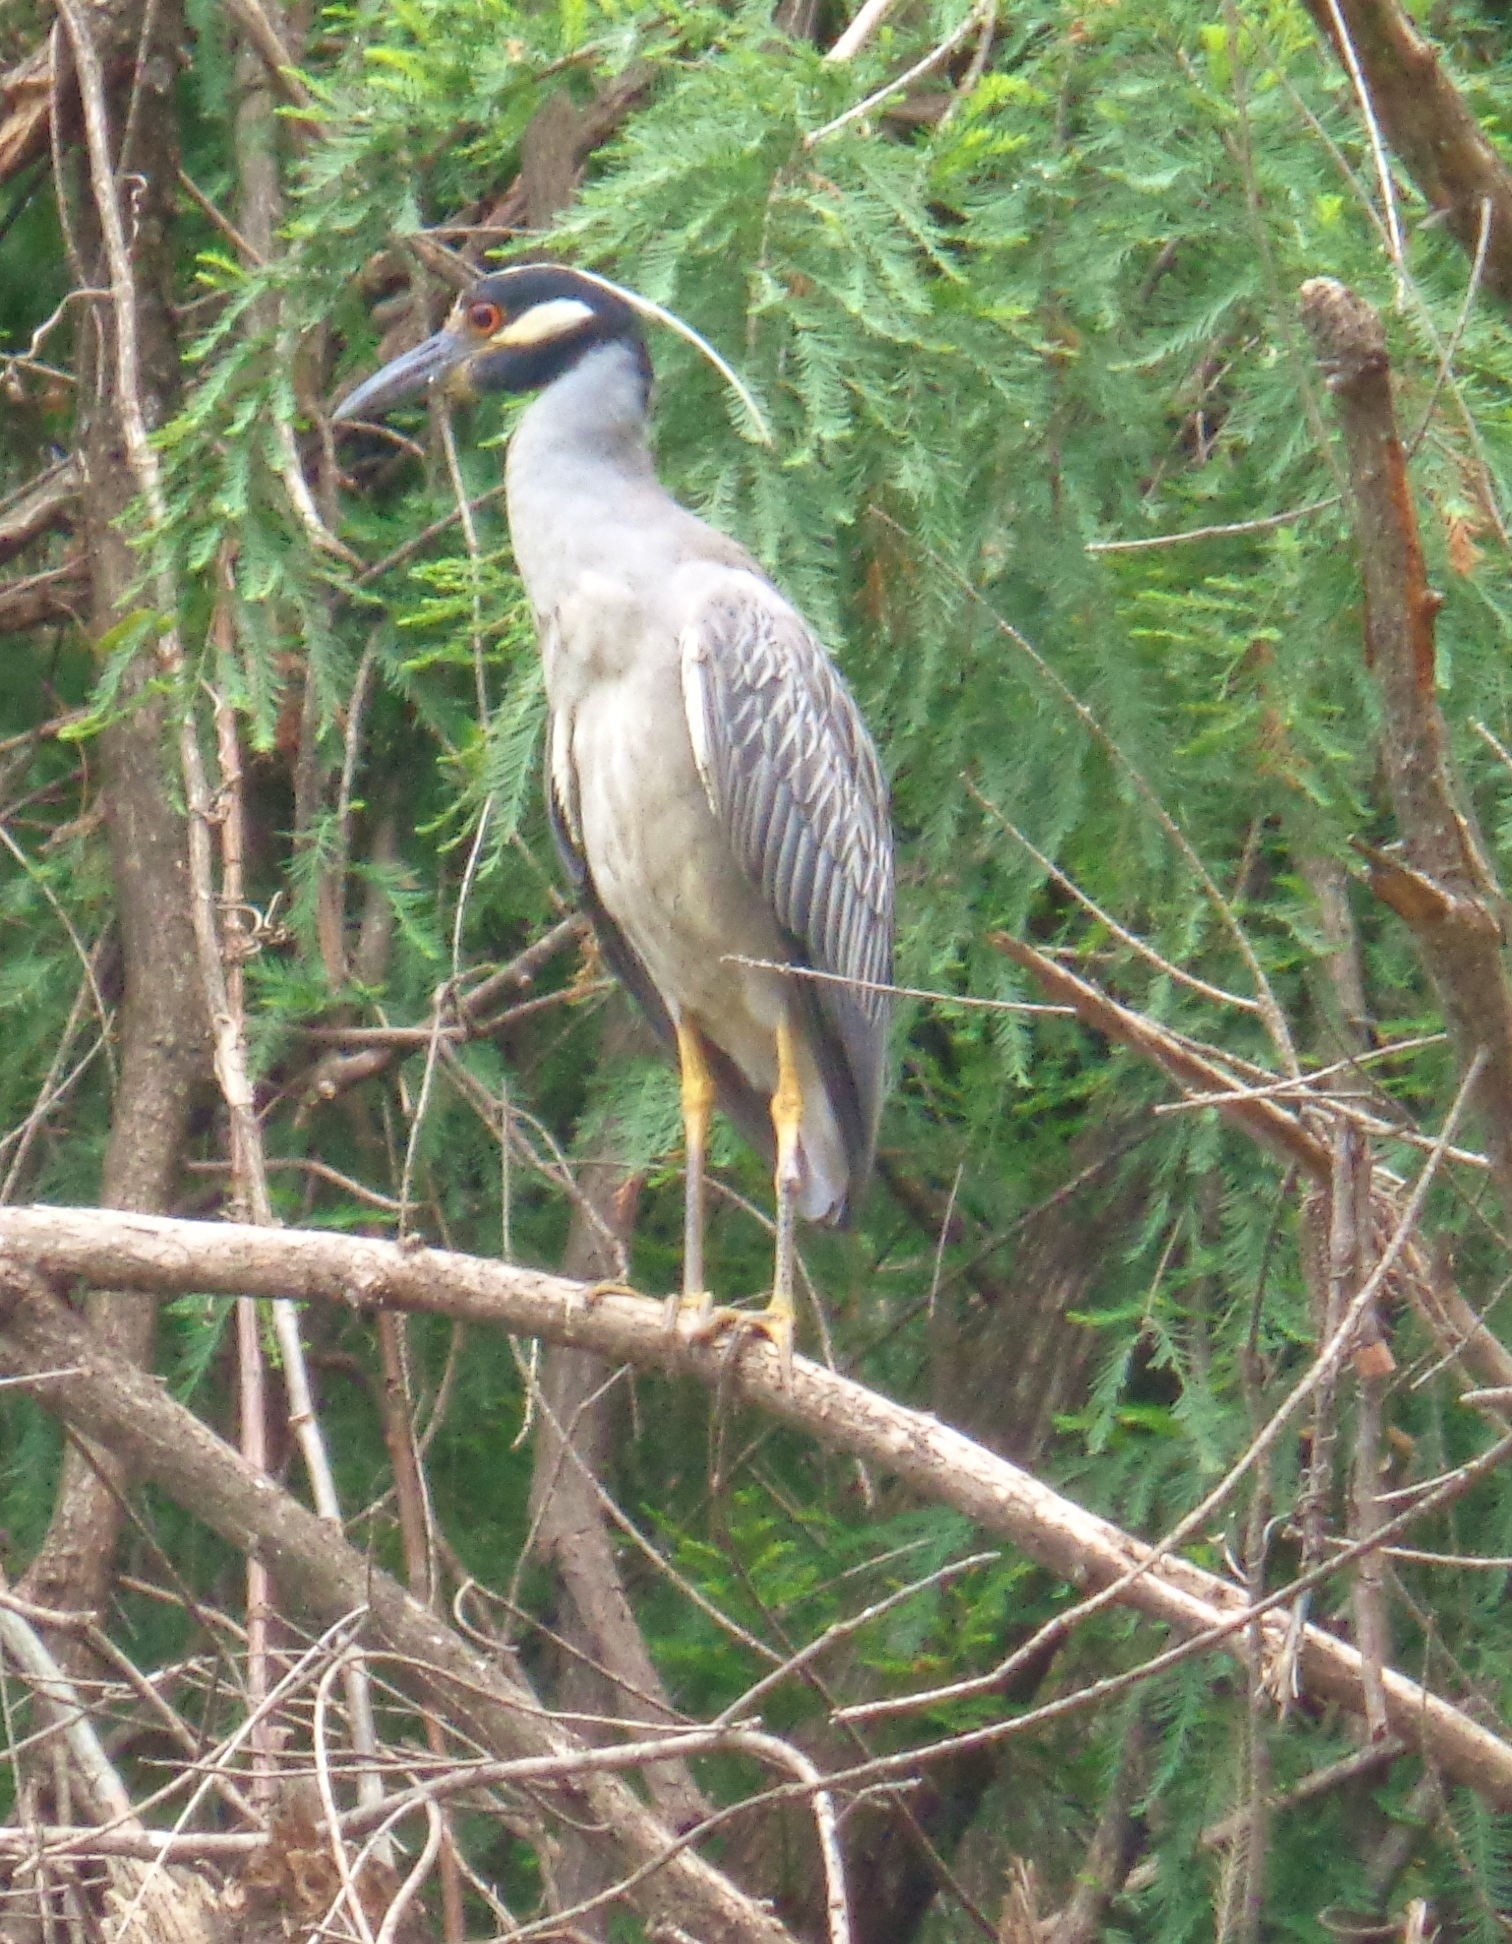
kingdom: Animalia
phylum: Chordata
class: Aves
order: Pelecaniformes
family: Ardeidae
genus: Nyctanassa
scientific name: Nyctanassa violacea
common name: Yellow-crowned night heron
